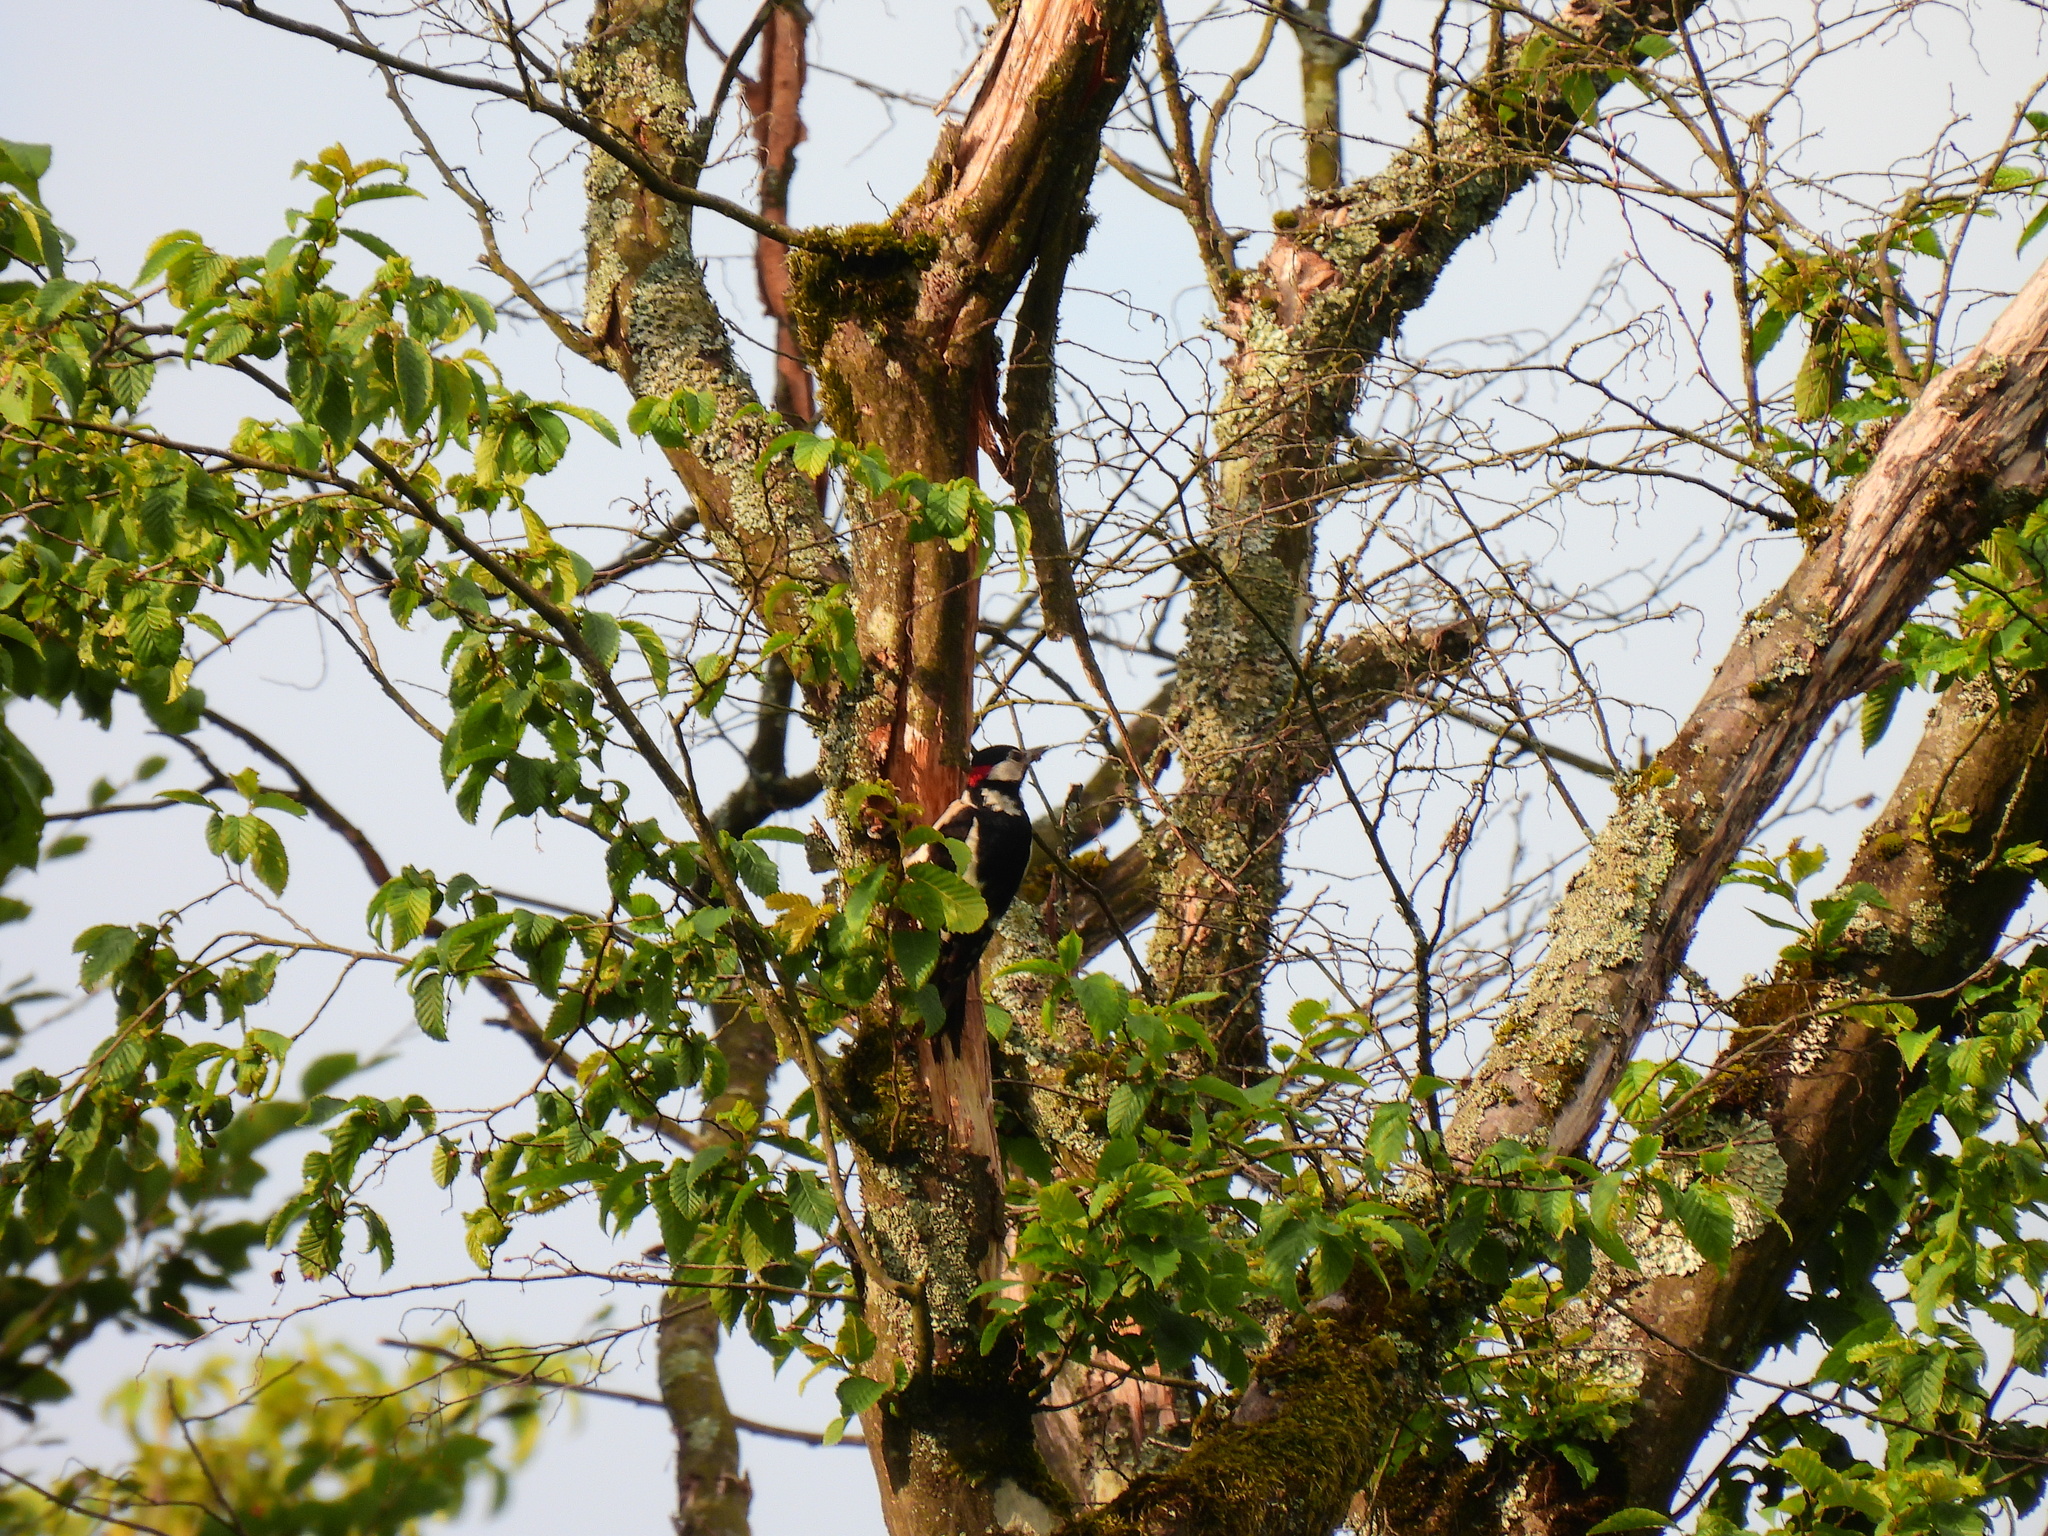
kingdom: Animalia
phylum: Chordata
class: Aves
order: Piciformes
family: Picidae
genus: Dendrocopos
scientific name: Dendrocopos major
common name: Great spotted woodpecker
